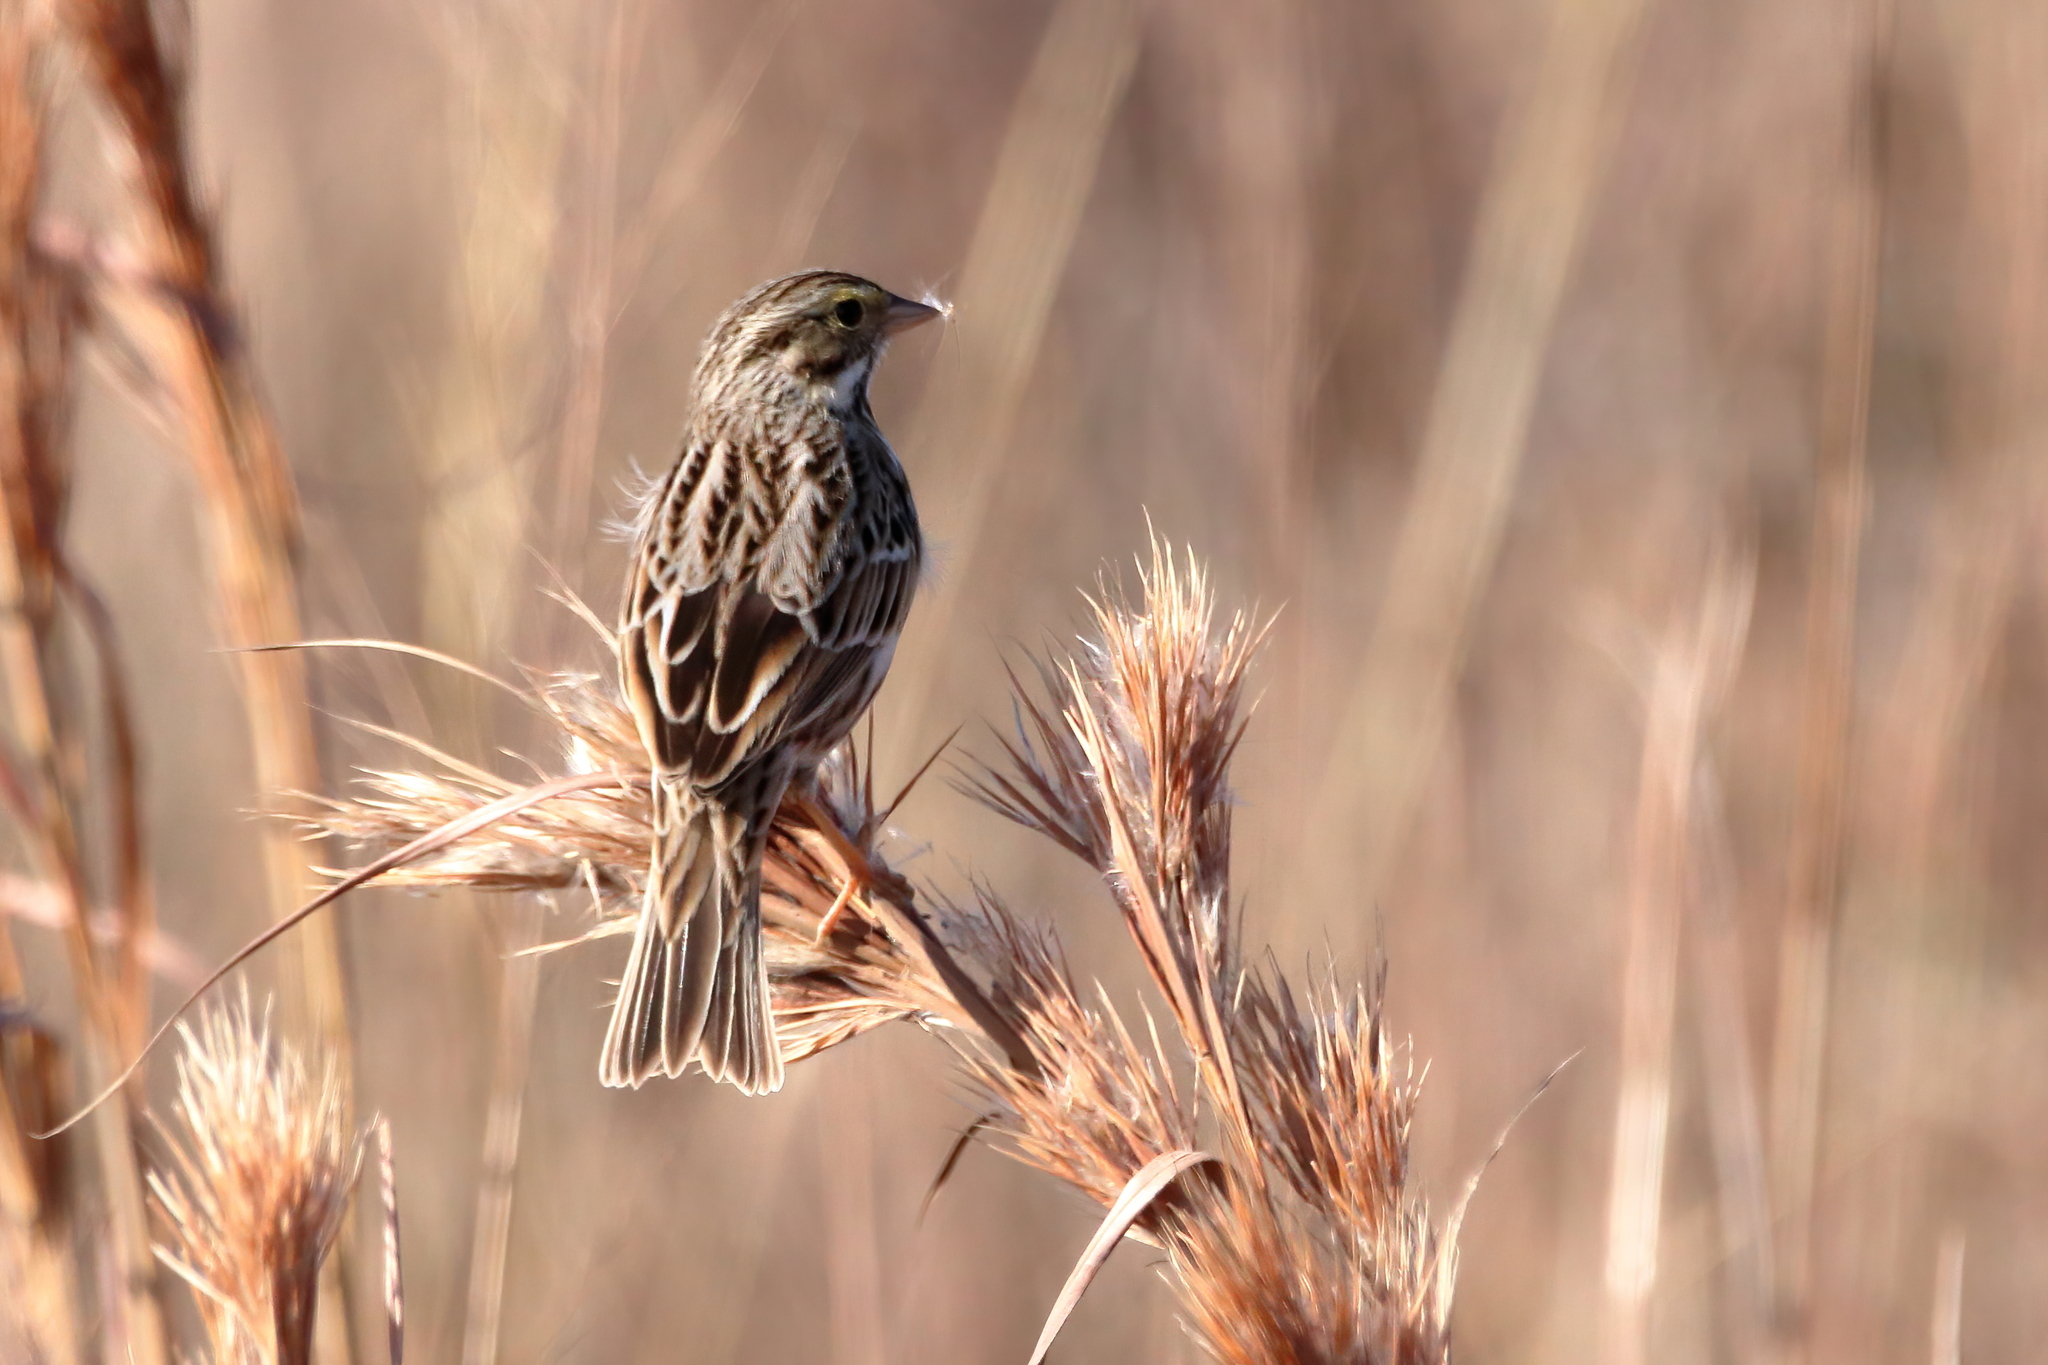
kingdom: Animalia
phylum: Chordata
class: Aves
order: Passeriformes
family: Passerellidae
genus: Passerculus
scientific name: Passerculus sandwichensis
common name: Savannah sparrow
